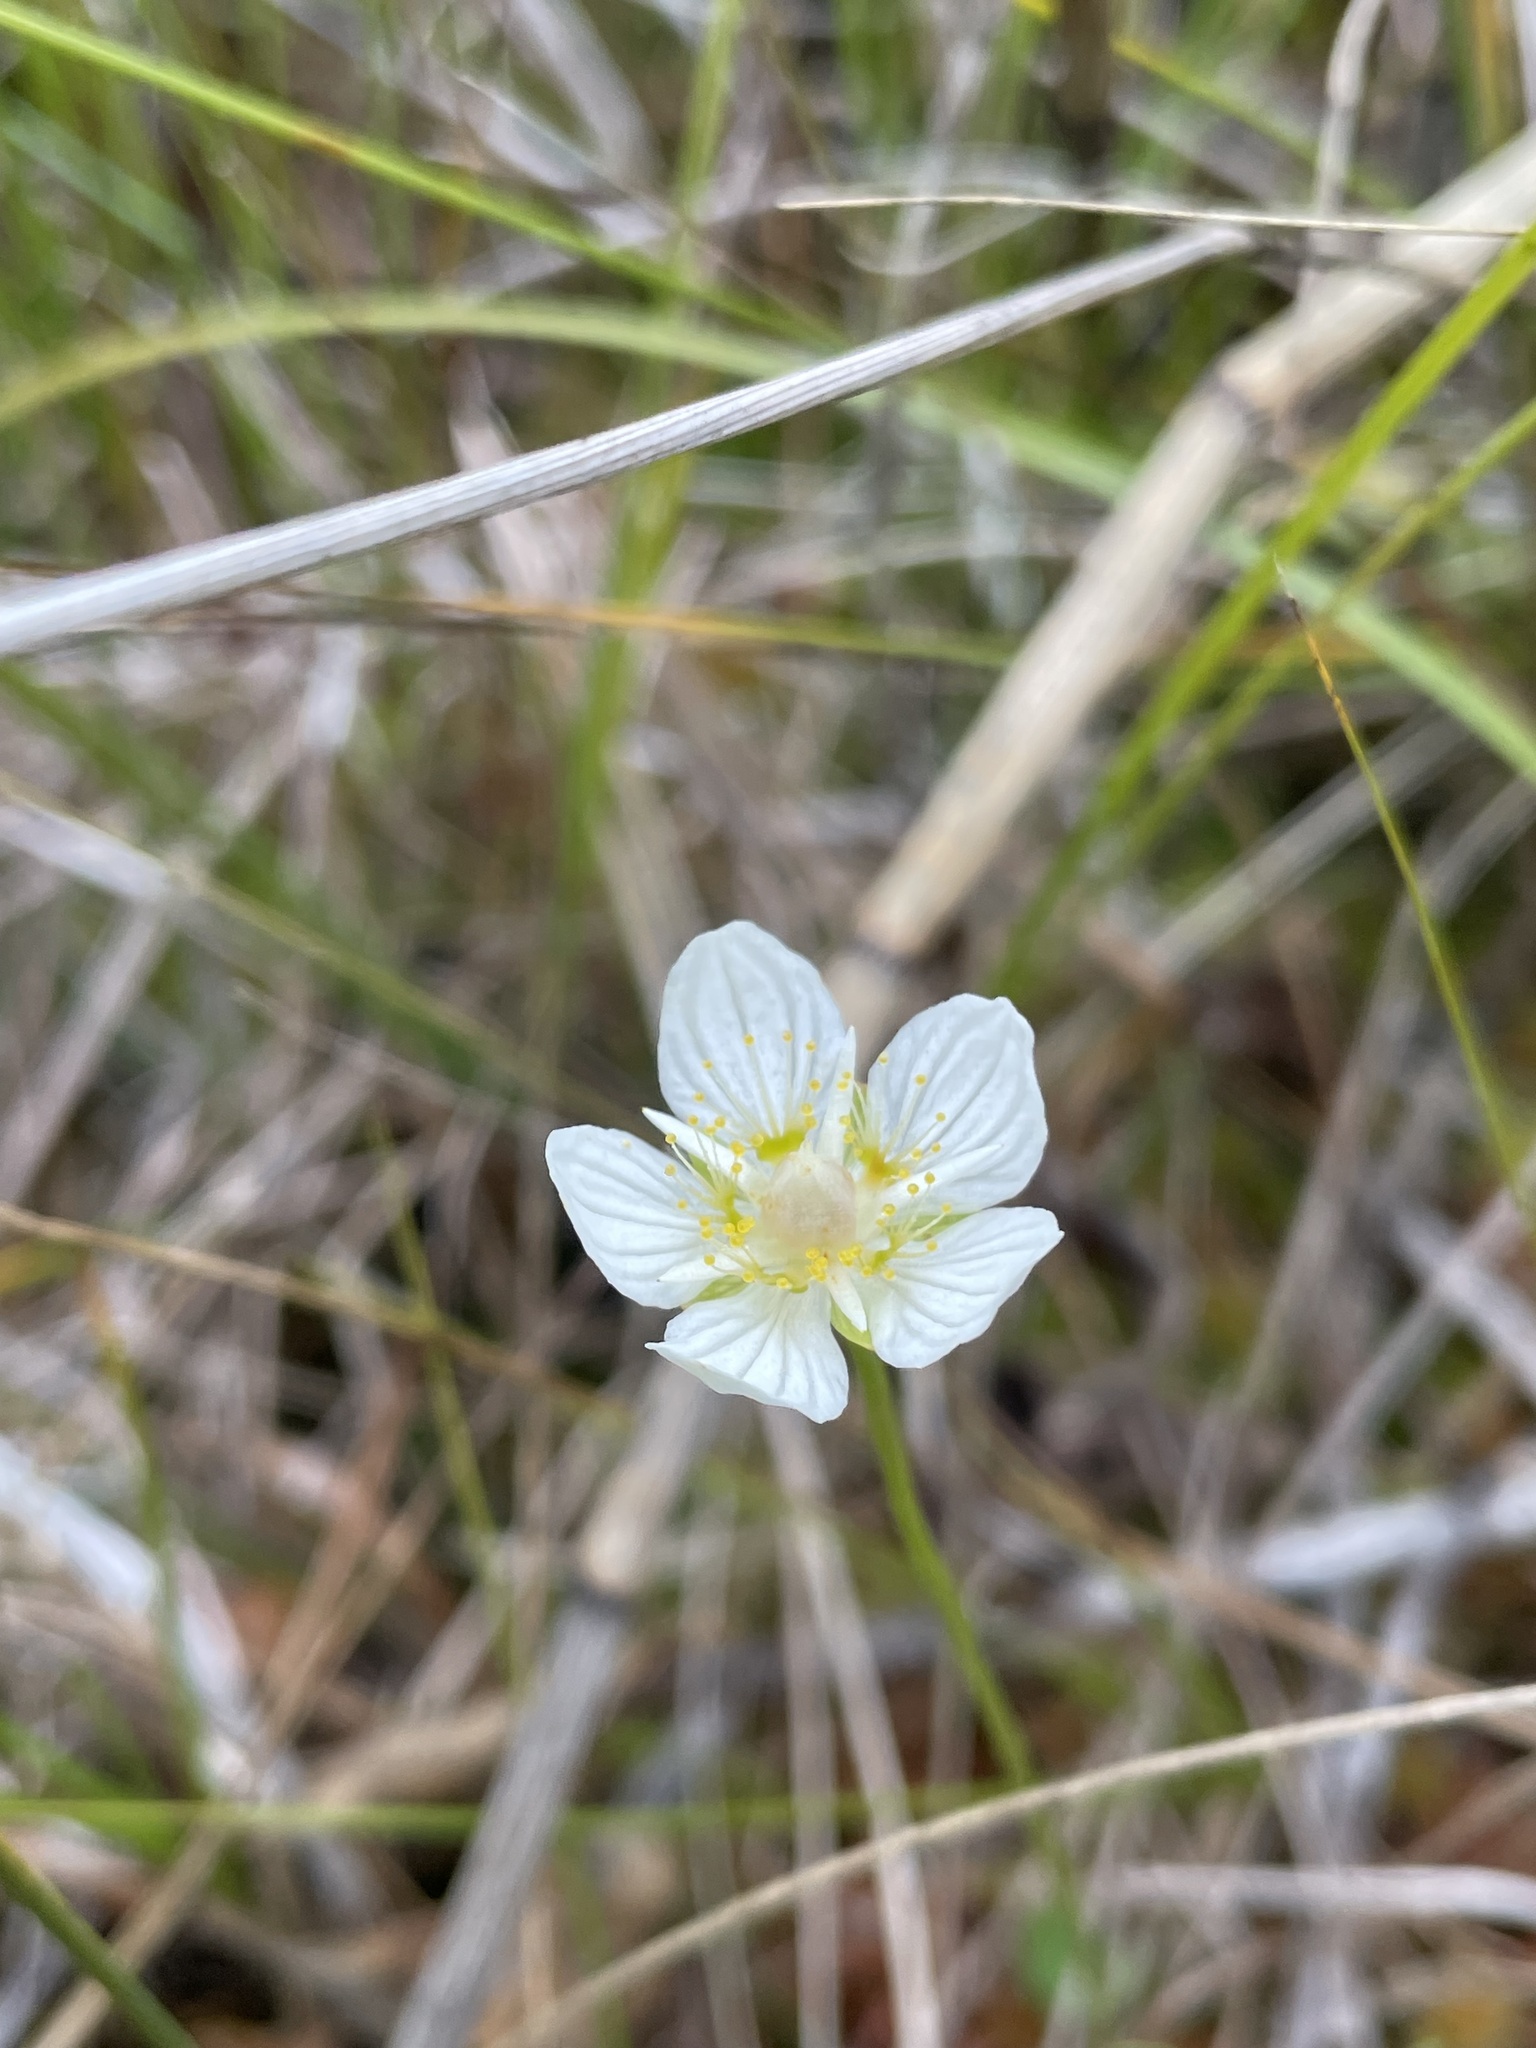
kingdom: Plantae
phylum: Tracheophyta
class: Magnoliopsida
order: Celastrales
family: Parnassiaceae
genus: Parnassia
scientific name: Parnassia palustris
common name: Grass-of-parnassus
